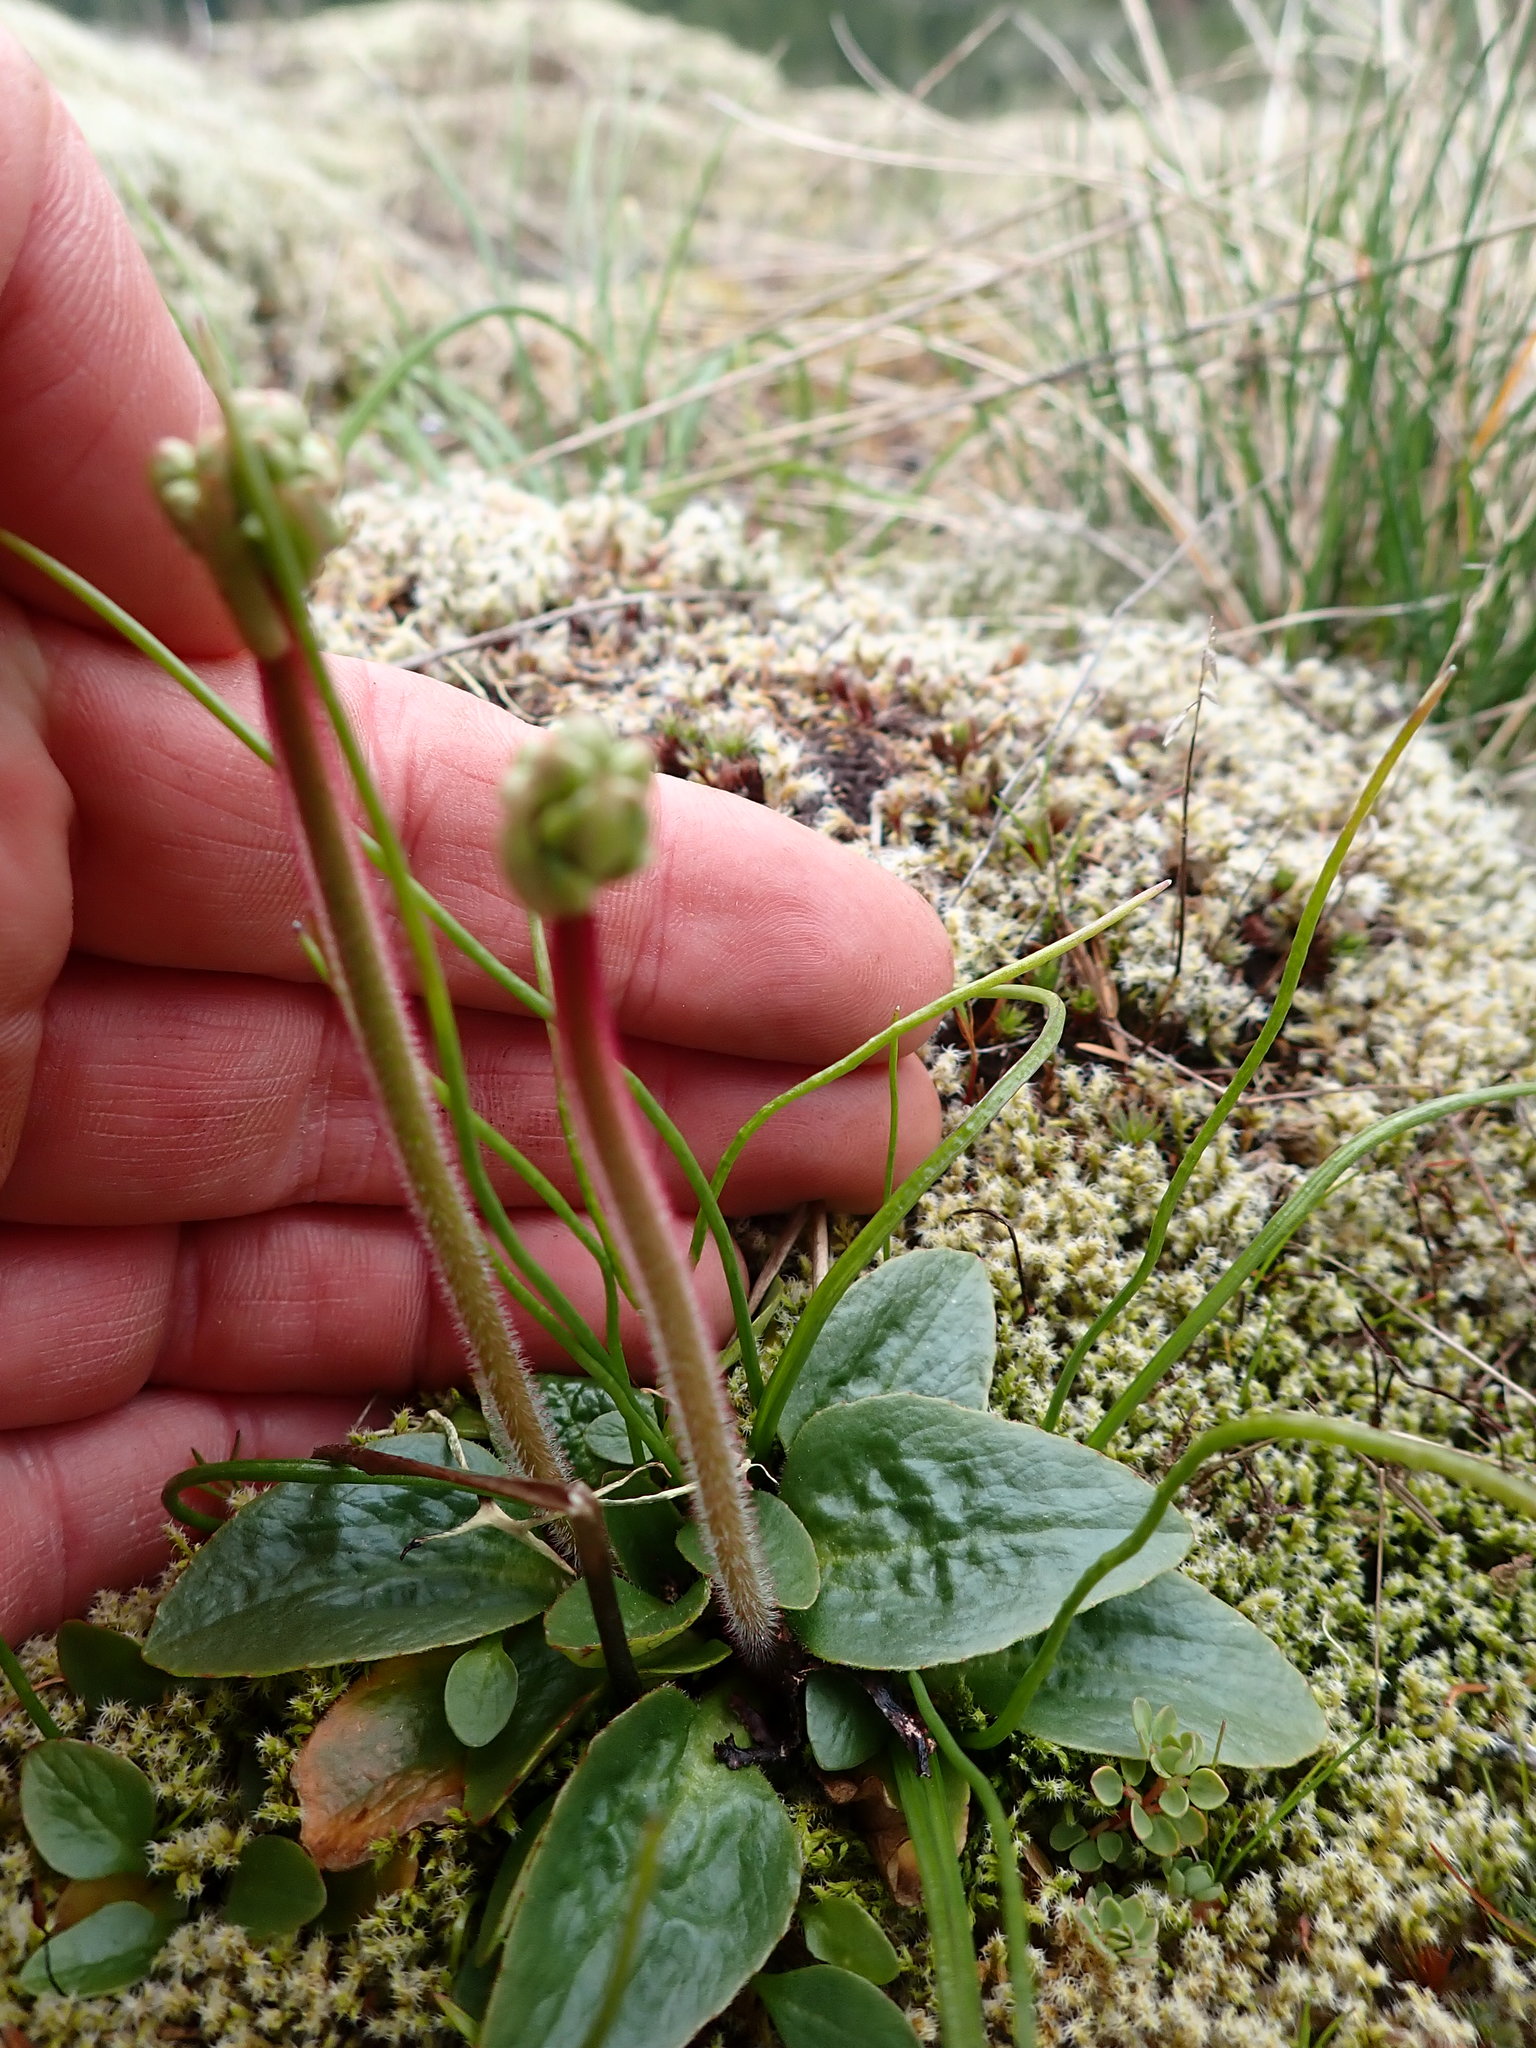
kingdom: Plantae
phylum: Tracheophyta
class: Magnoliopsida
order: Saxifragales
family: Saxifragaceae
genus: Micranthes
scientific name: Micranthes integrifolia
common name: Wholeleaf saxifrage
